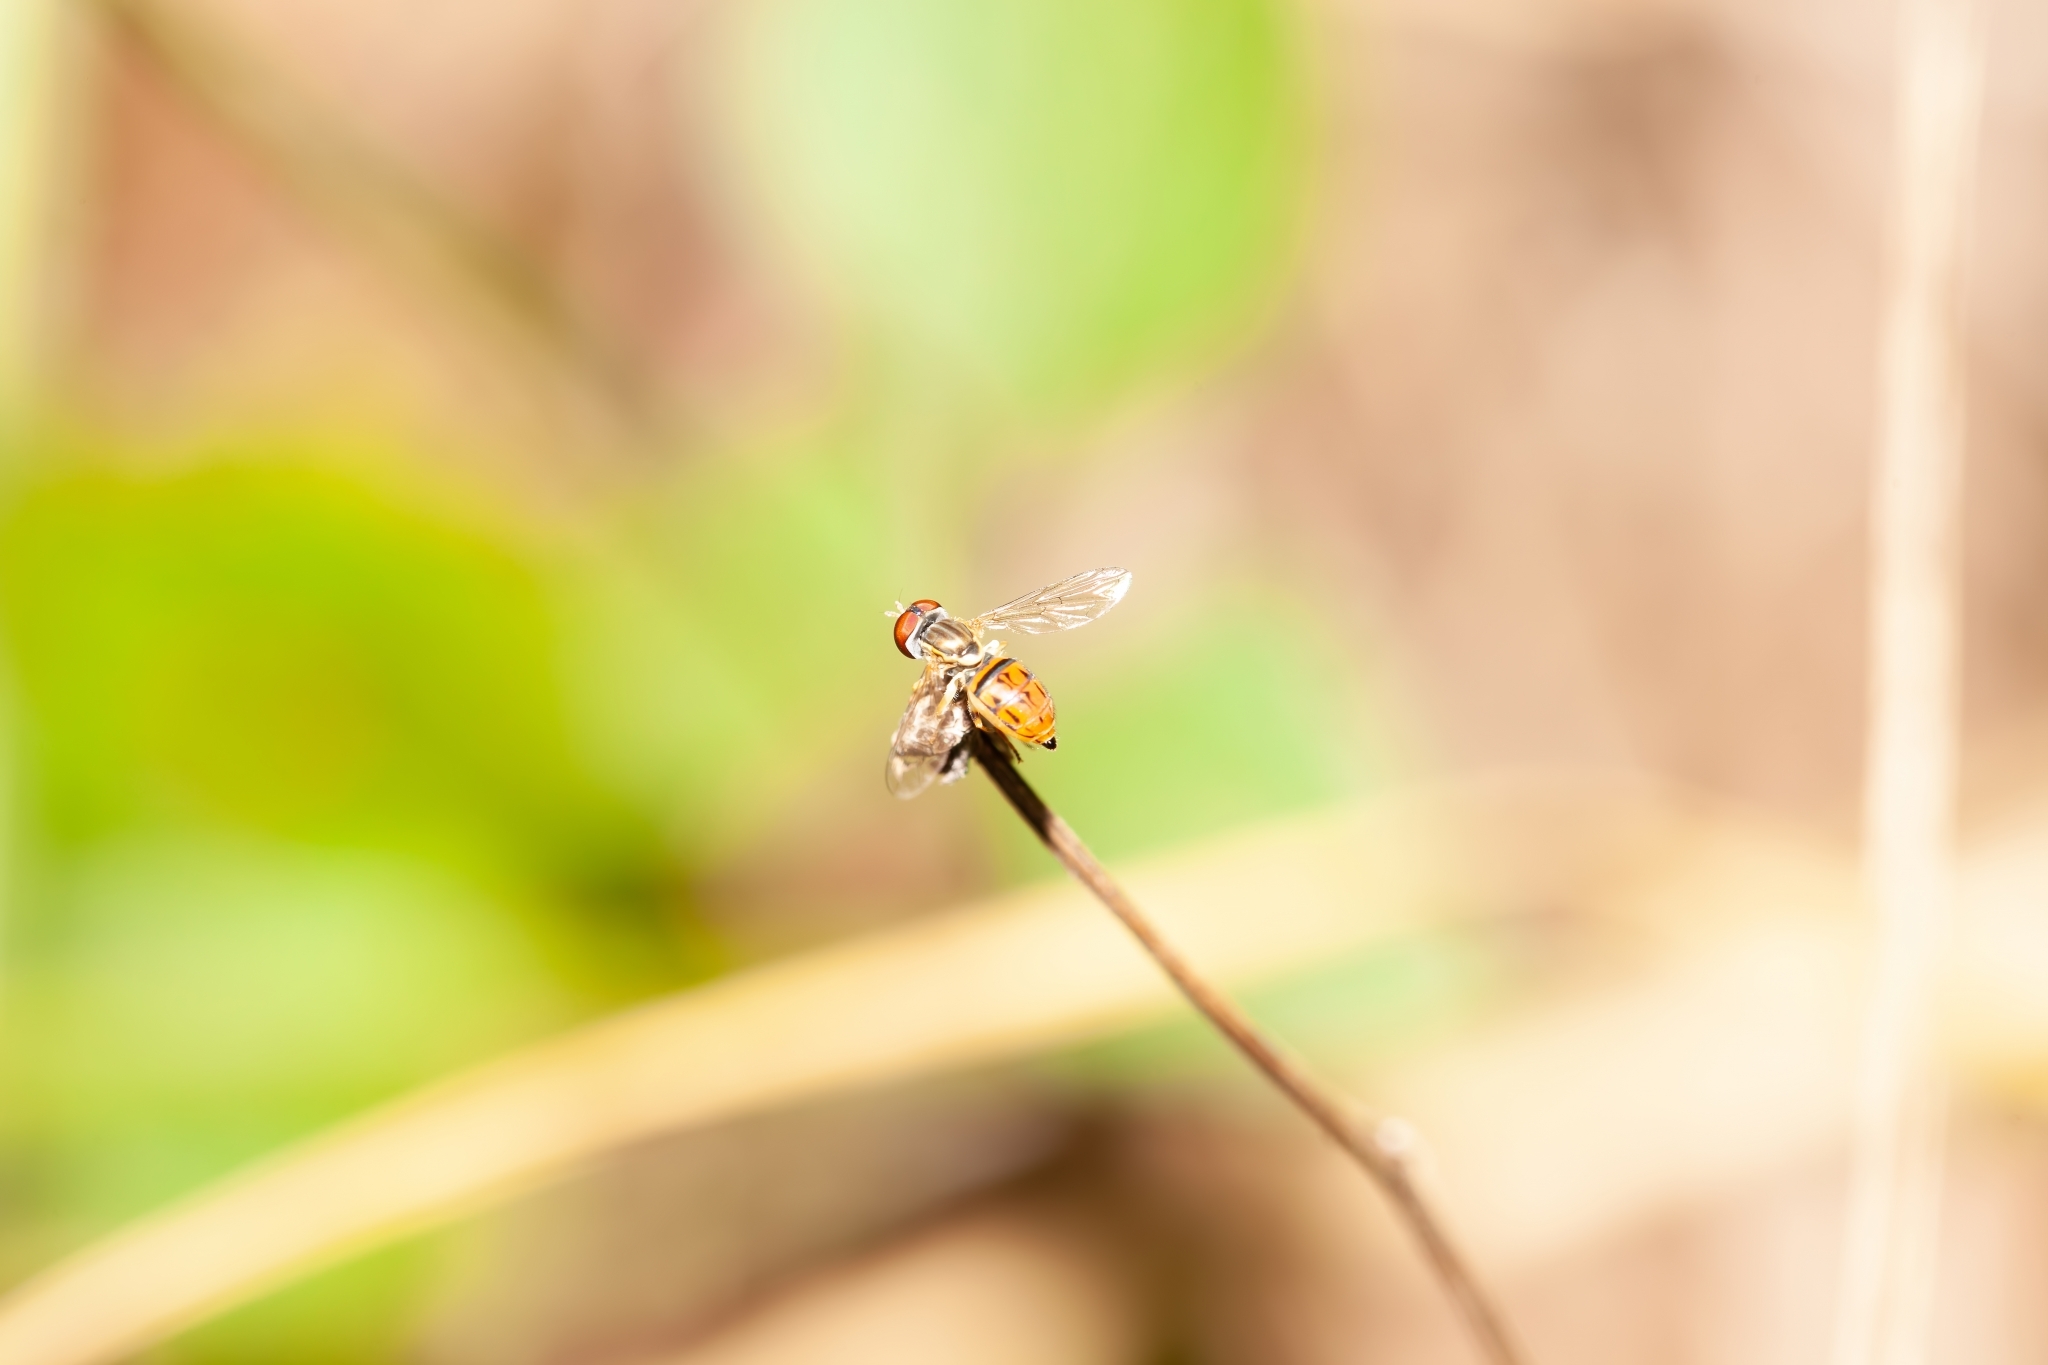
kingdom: Animalia
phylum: Arthropoda
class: Insecta
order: Diptera
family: Syrphidae
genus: Toxomerus
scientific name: Toxomerus boscii
